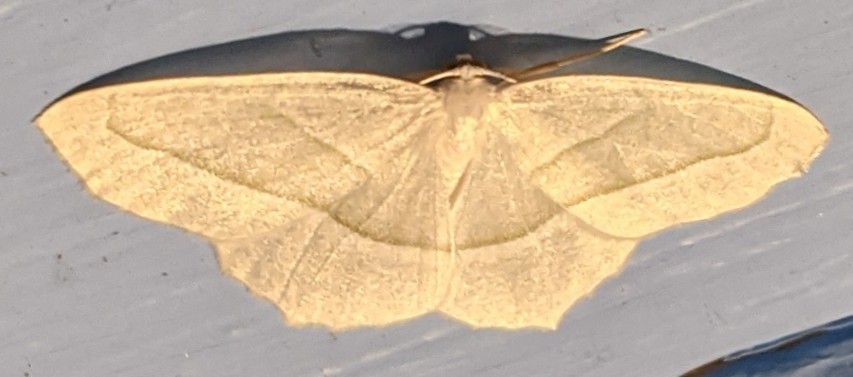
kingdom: Animalia
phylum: Arthropoda
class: Insecta
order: Lepidoptera
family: Geometridae
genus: Campaea
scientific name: Campaea perlata
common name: Fringed looper
